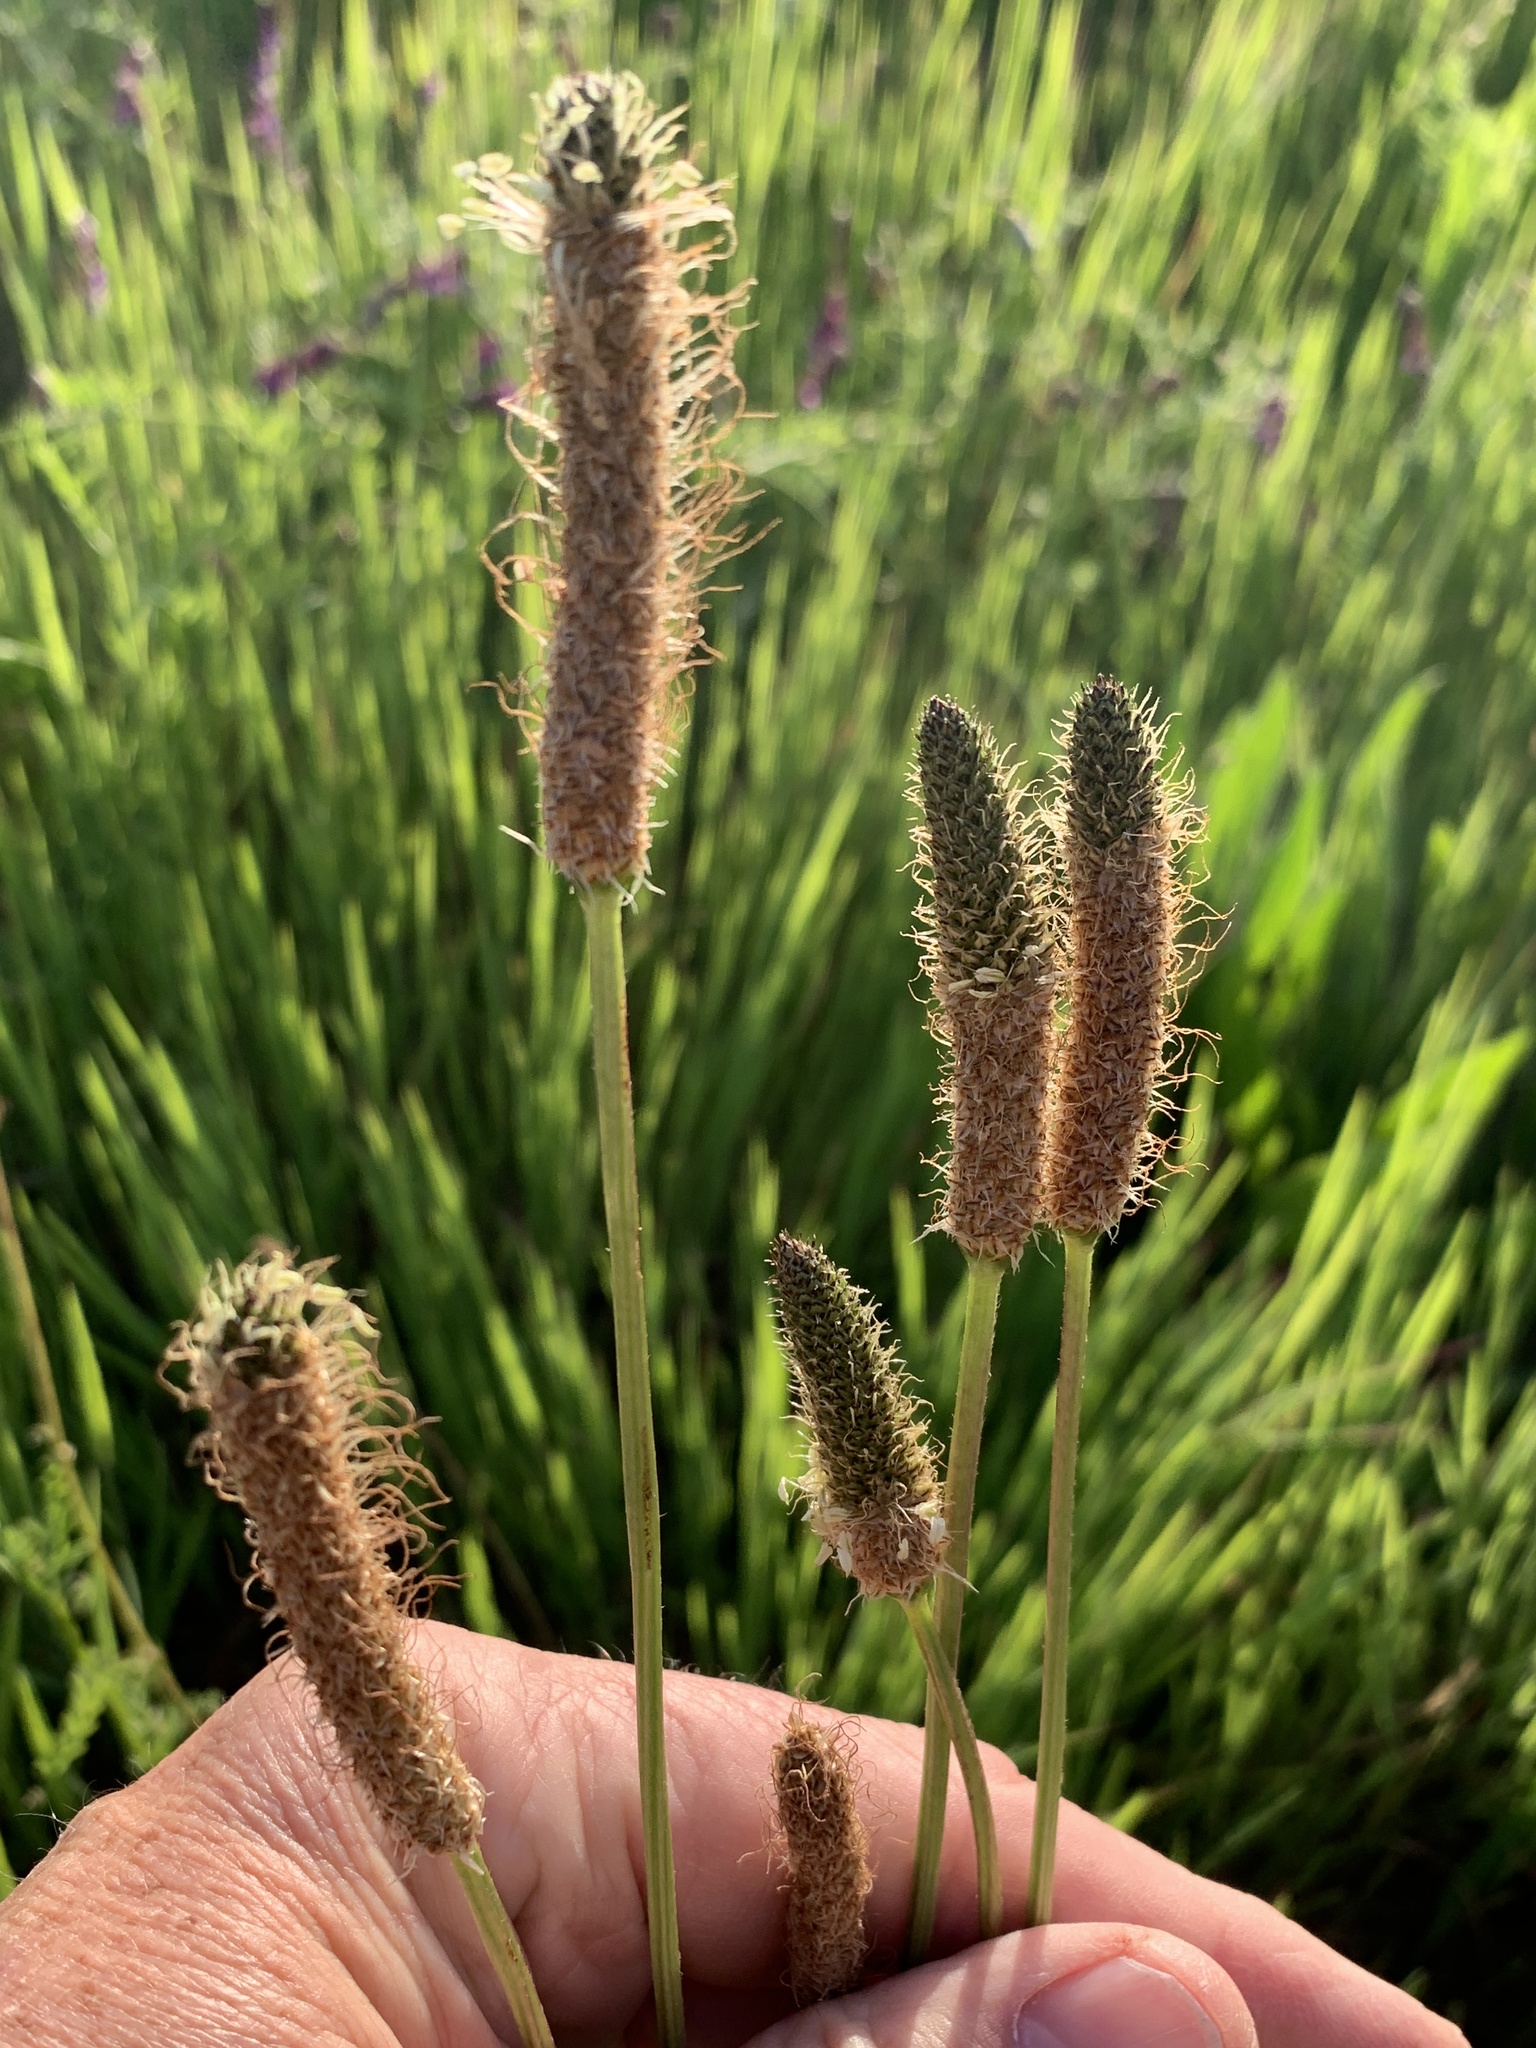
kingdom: Plantae
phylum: Tracheophyta
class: Magnoliopsida
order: Lamiales
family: Plantaginaceae
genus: Plantago
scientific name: Plantago lanceolata
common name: Ribwort plantain
